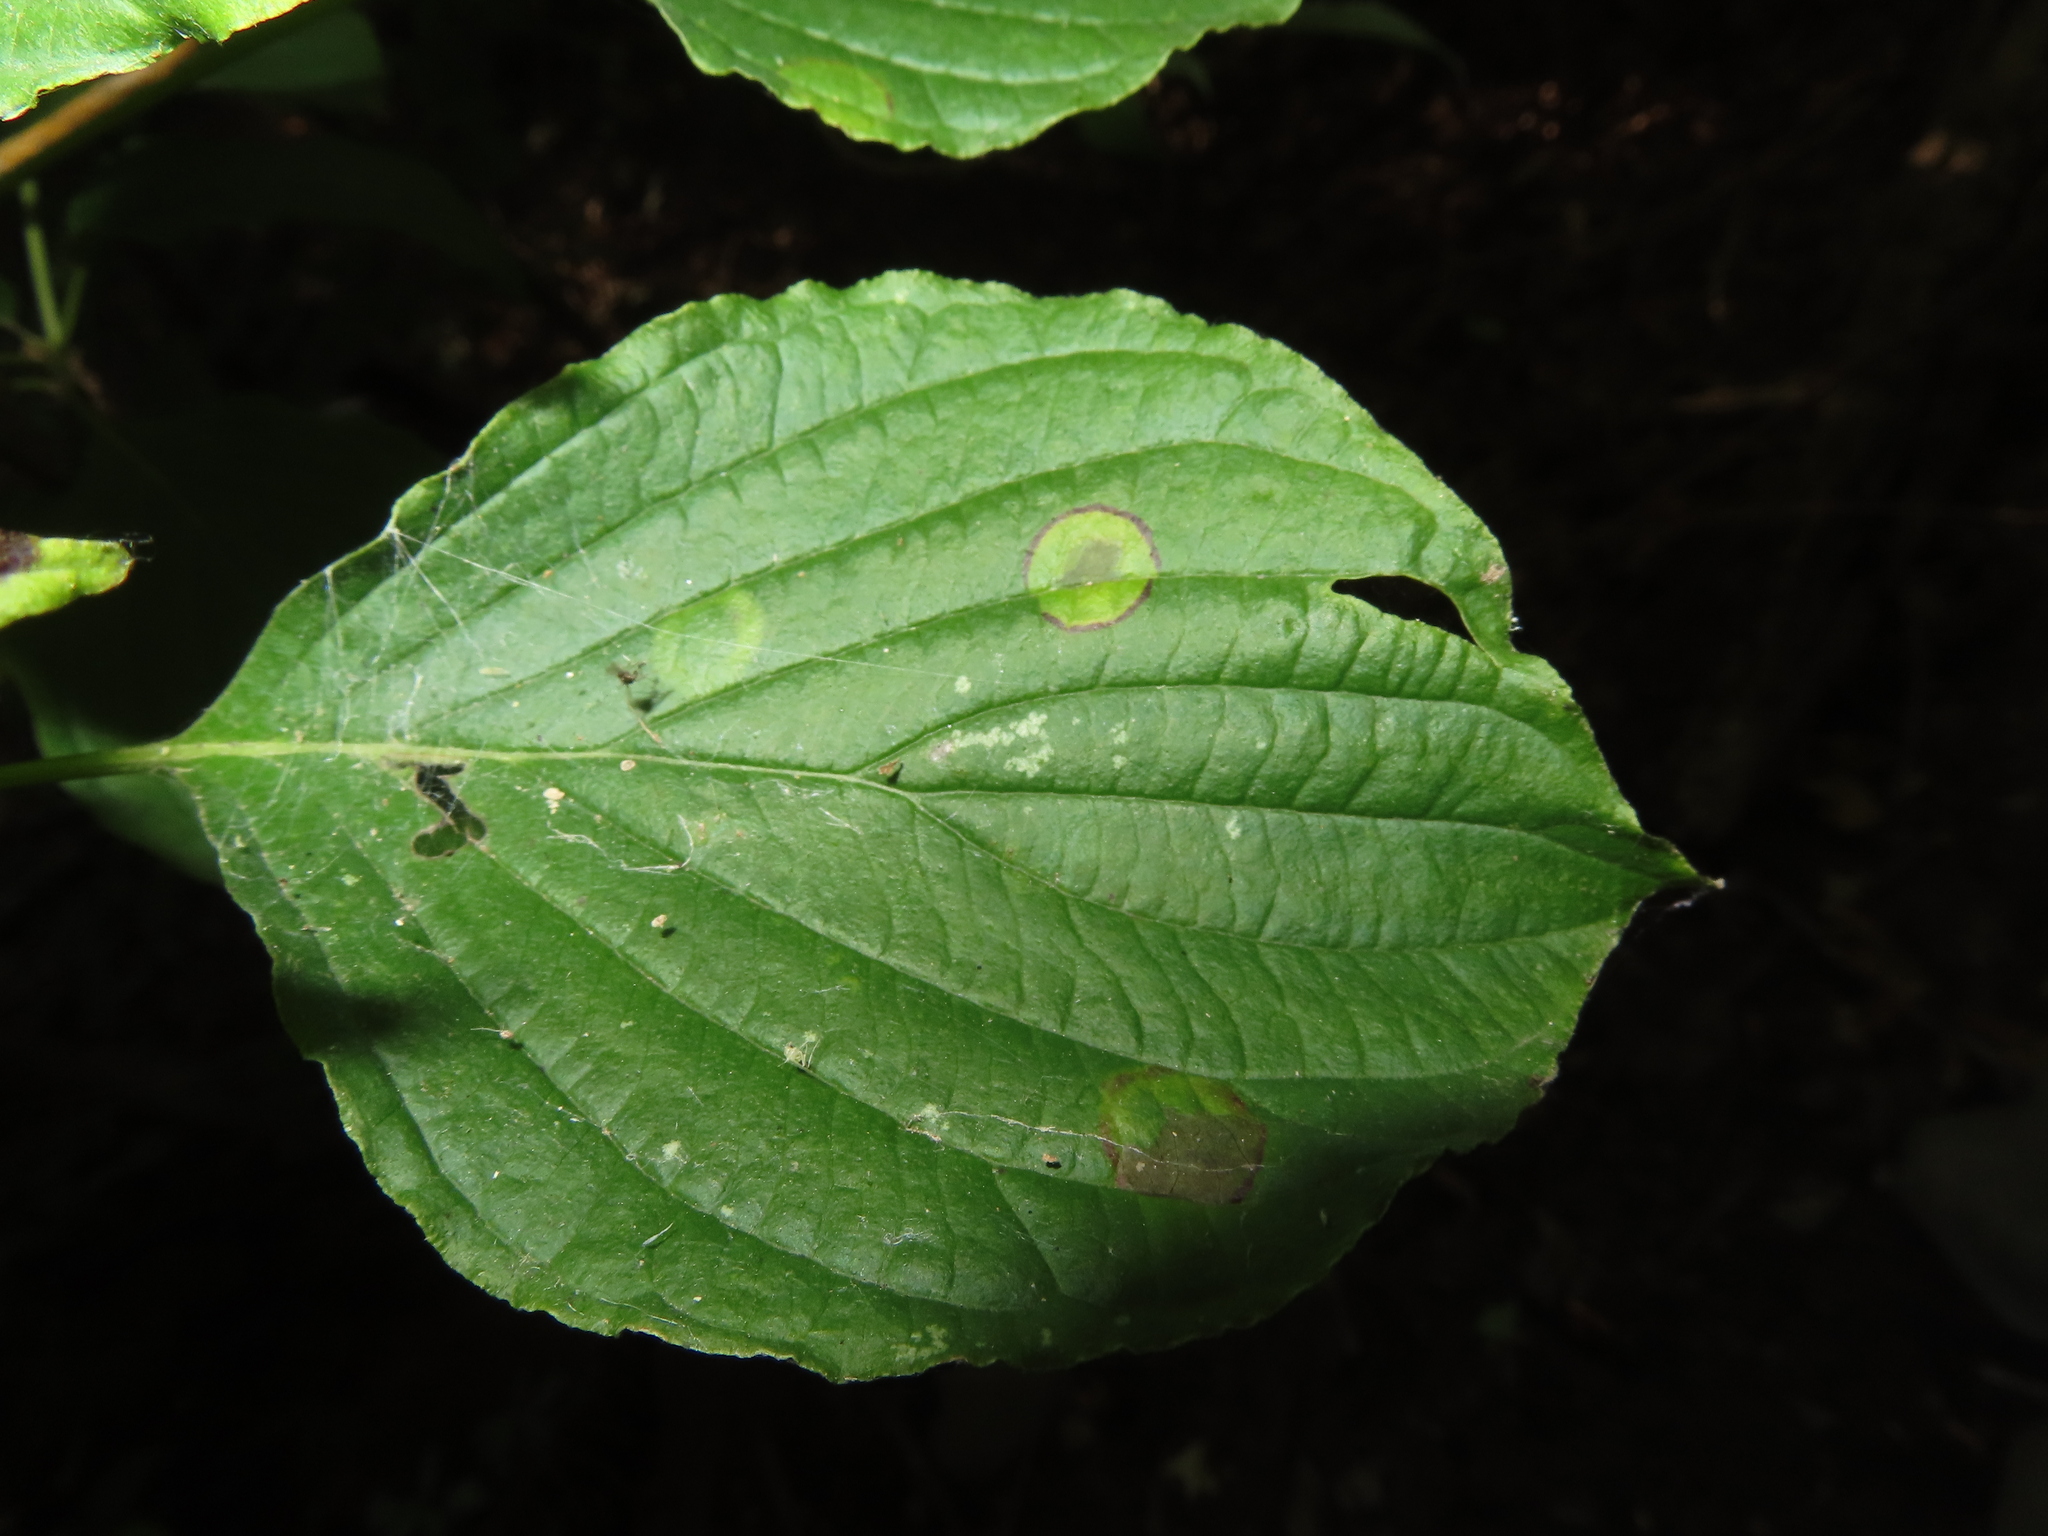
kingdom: Animalia
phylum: Arthropoda
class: Insecta
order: Diptera
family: Cecidomyiidae
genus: Parallelodiplosis
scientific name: Parallelodiplosis subtruncata
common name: Dogwood eyespot gall midge
